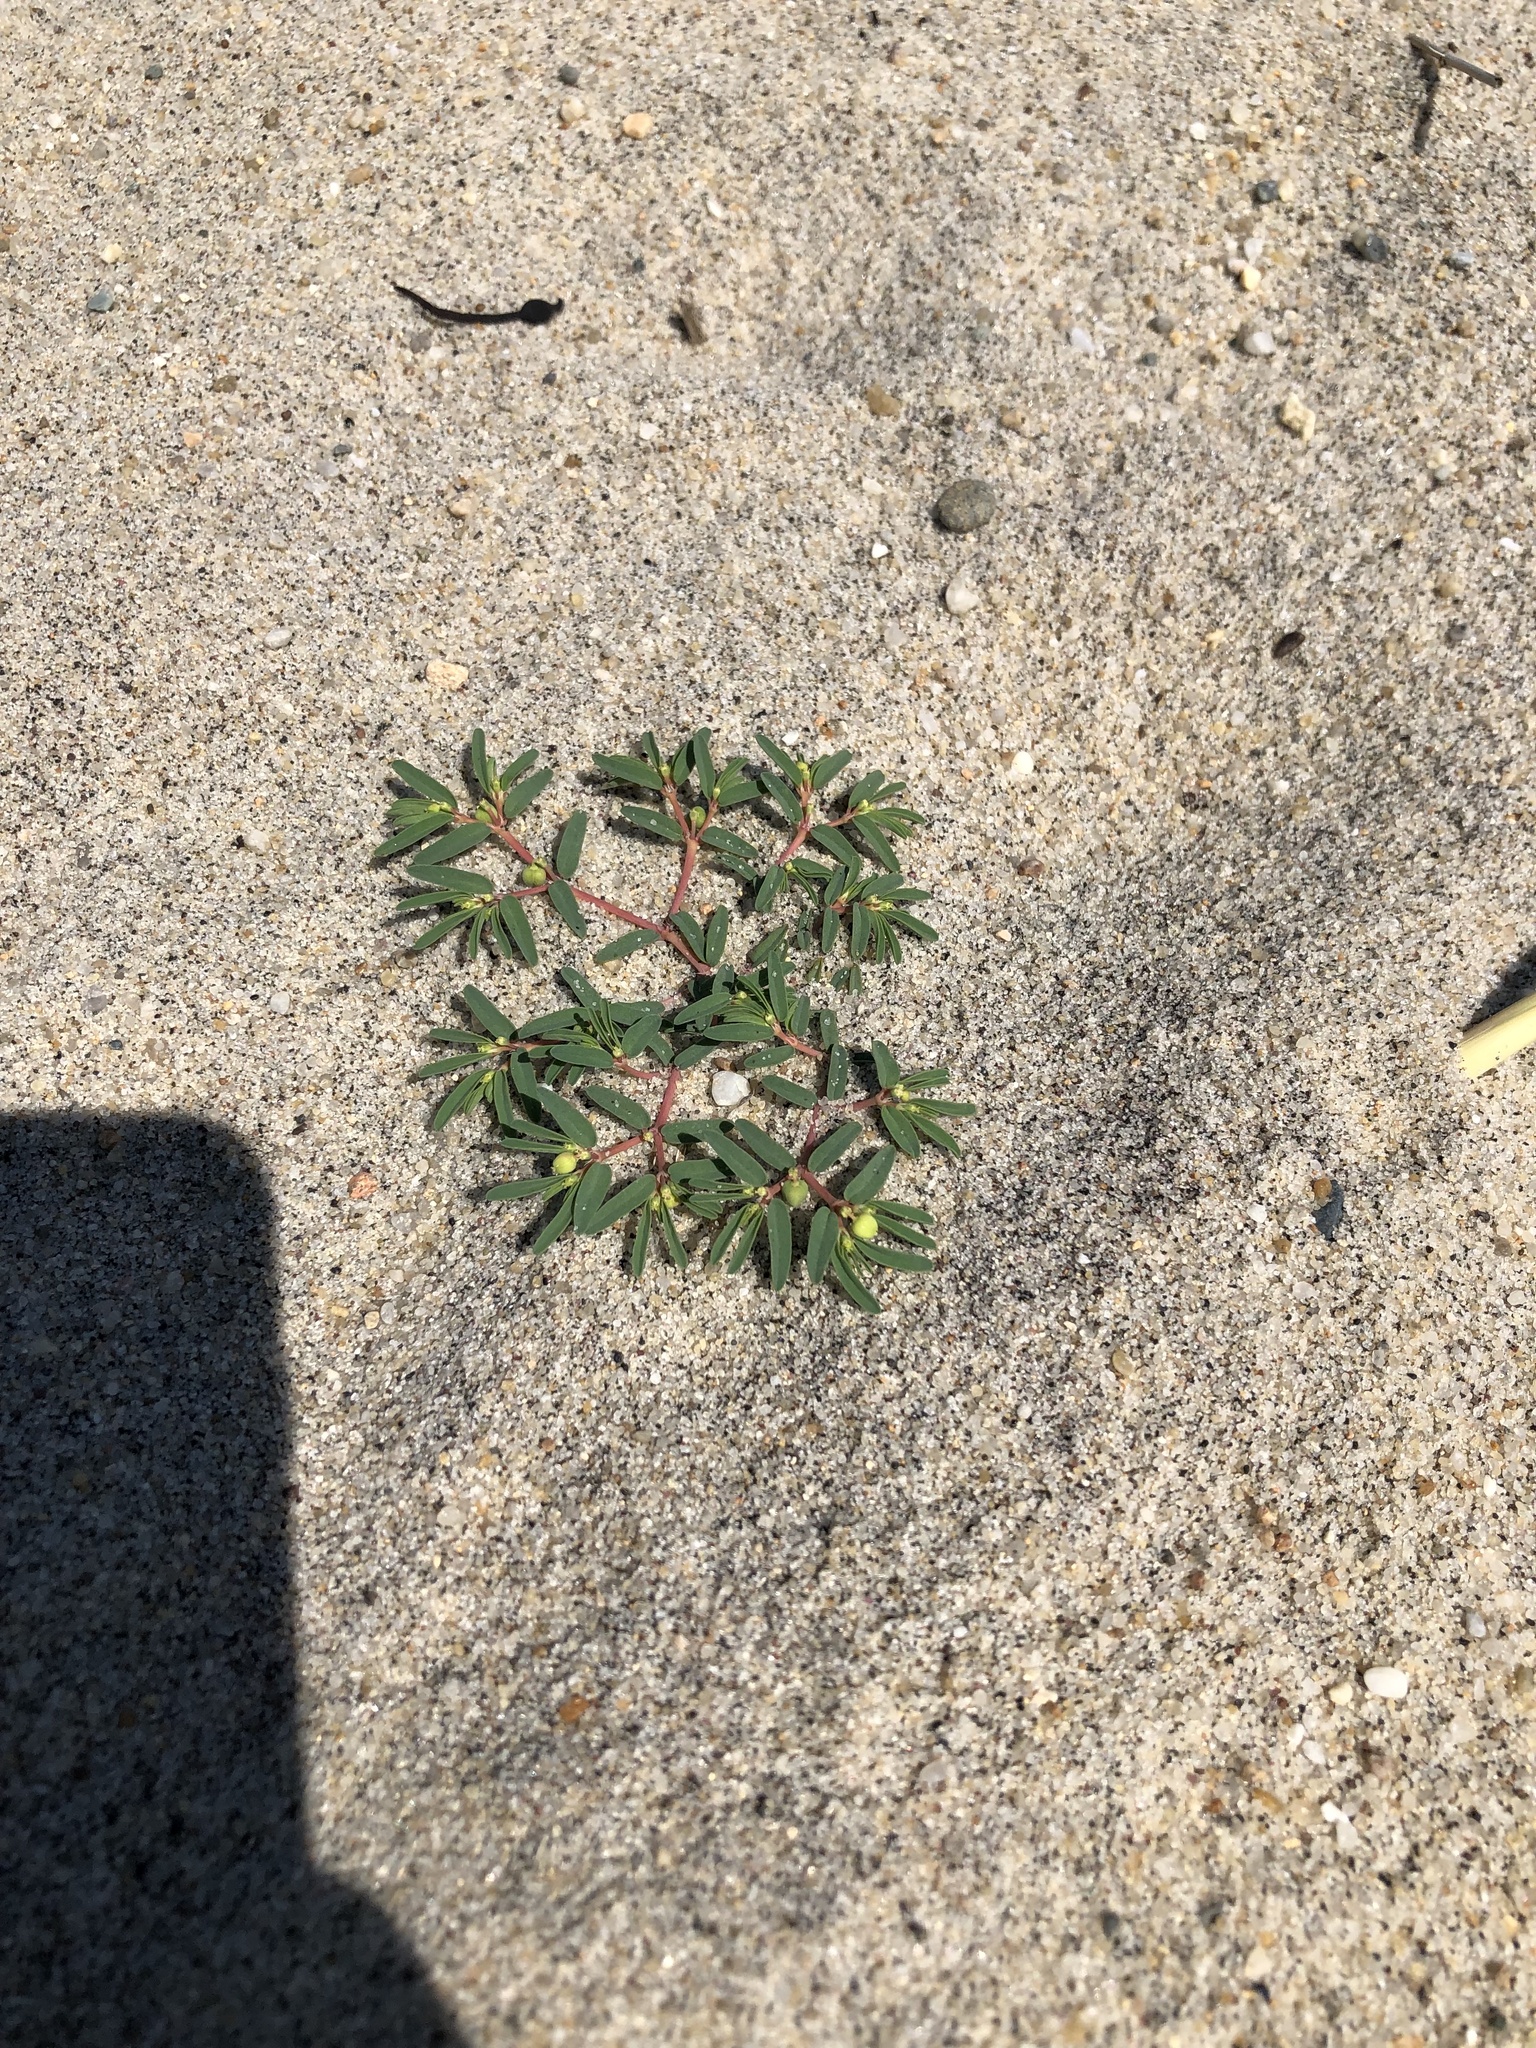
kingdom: Plantae
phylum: Tracheophyta
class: Magnoliopsida
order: Malpighiales
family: Euphorbiaceae
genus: Euphorbia
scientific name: Euphorbia polygonifolia
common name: Knotweed spurge
